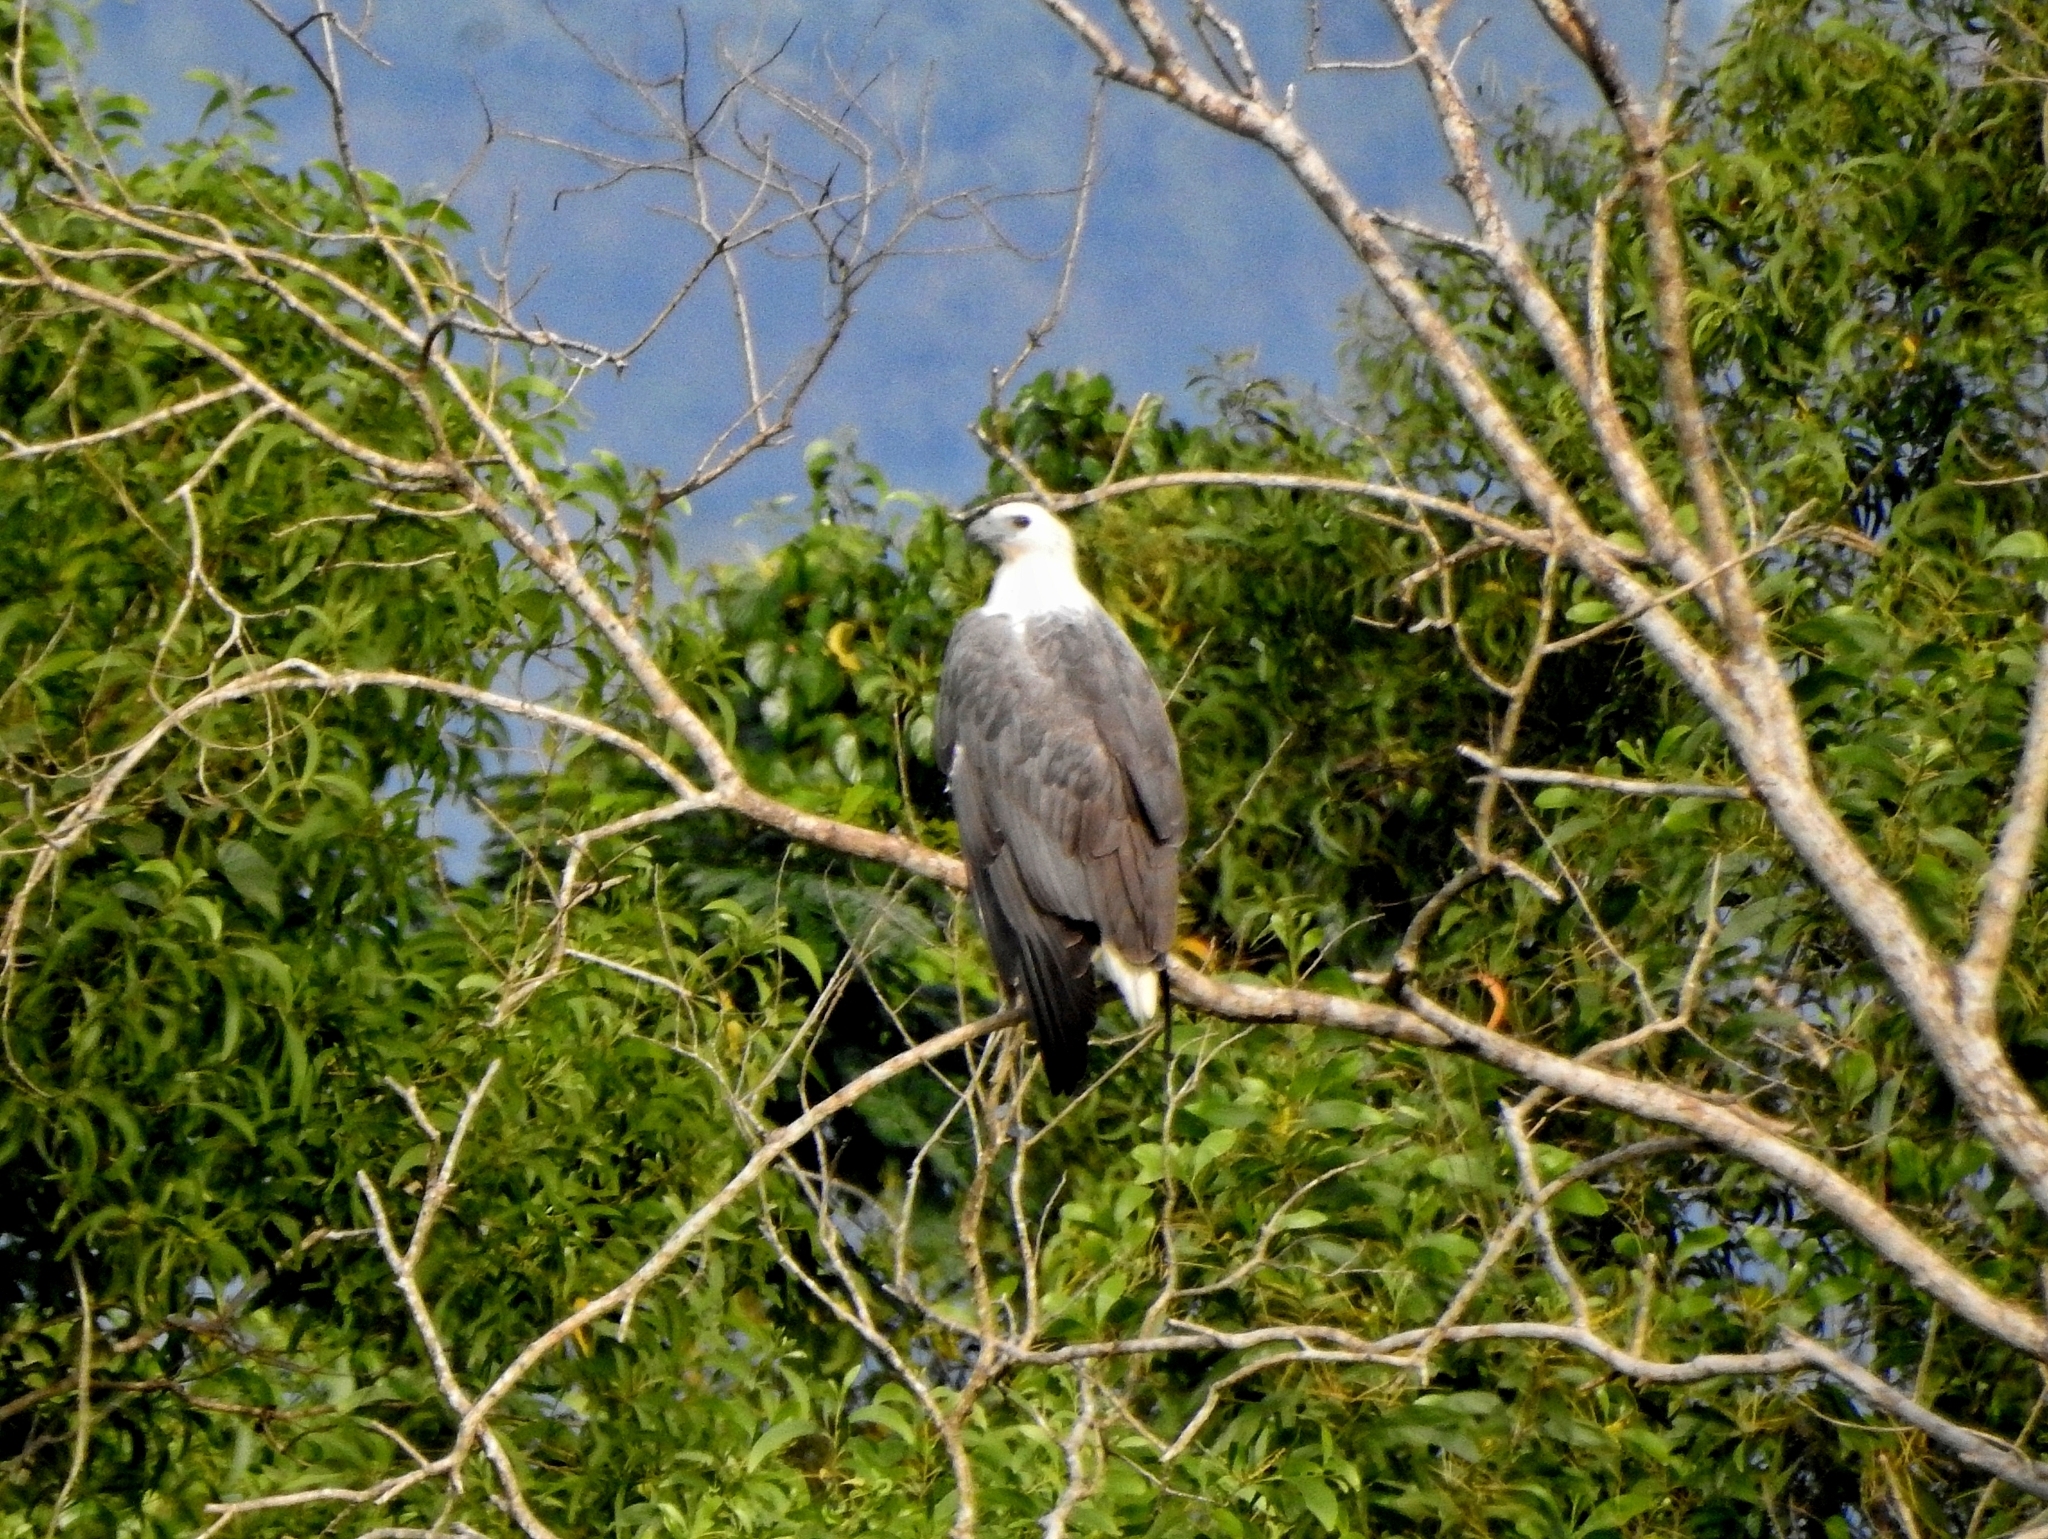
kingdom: Animalia
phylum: Chordata
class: Aves
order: Accipitriformes
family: Accipitridae
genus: Haliaeetus
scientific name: Haliaeetus leucogaster
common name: White-bellied sea eagle
